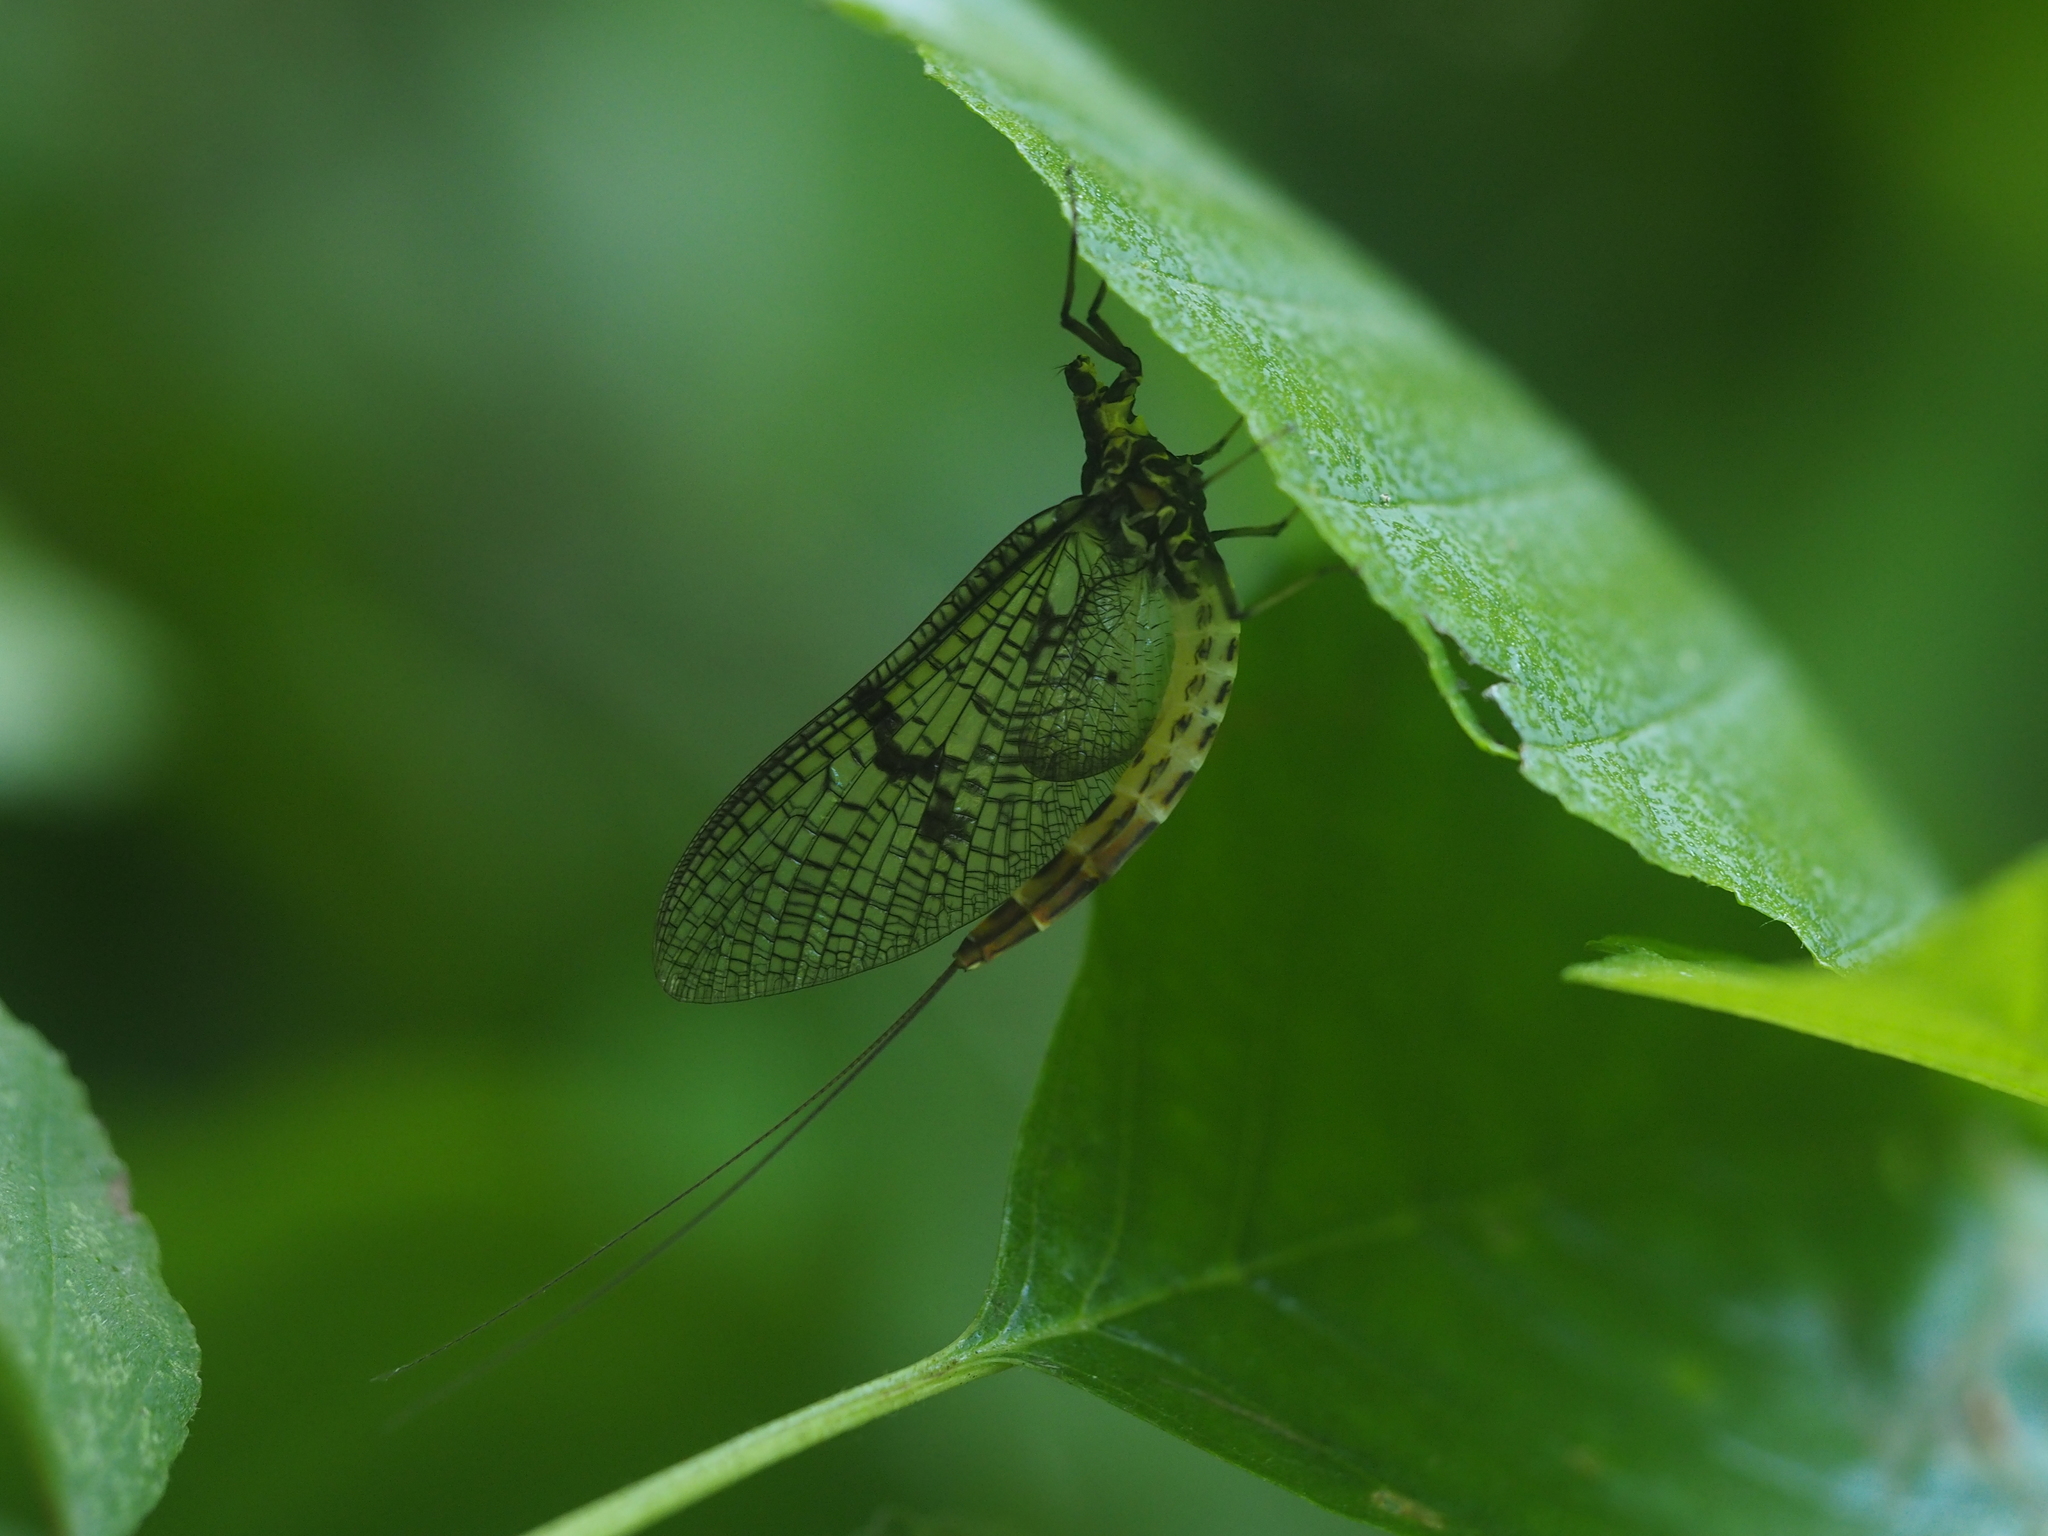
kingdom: Animalia
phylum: Arthropoda
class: Insecta
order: Ephemeroptera
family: Ephemeridae
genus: Ephemera
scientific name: Ephemera danica
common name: Green dun
